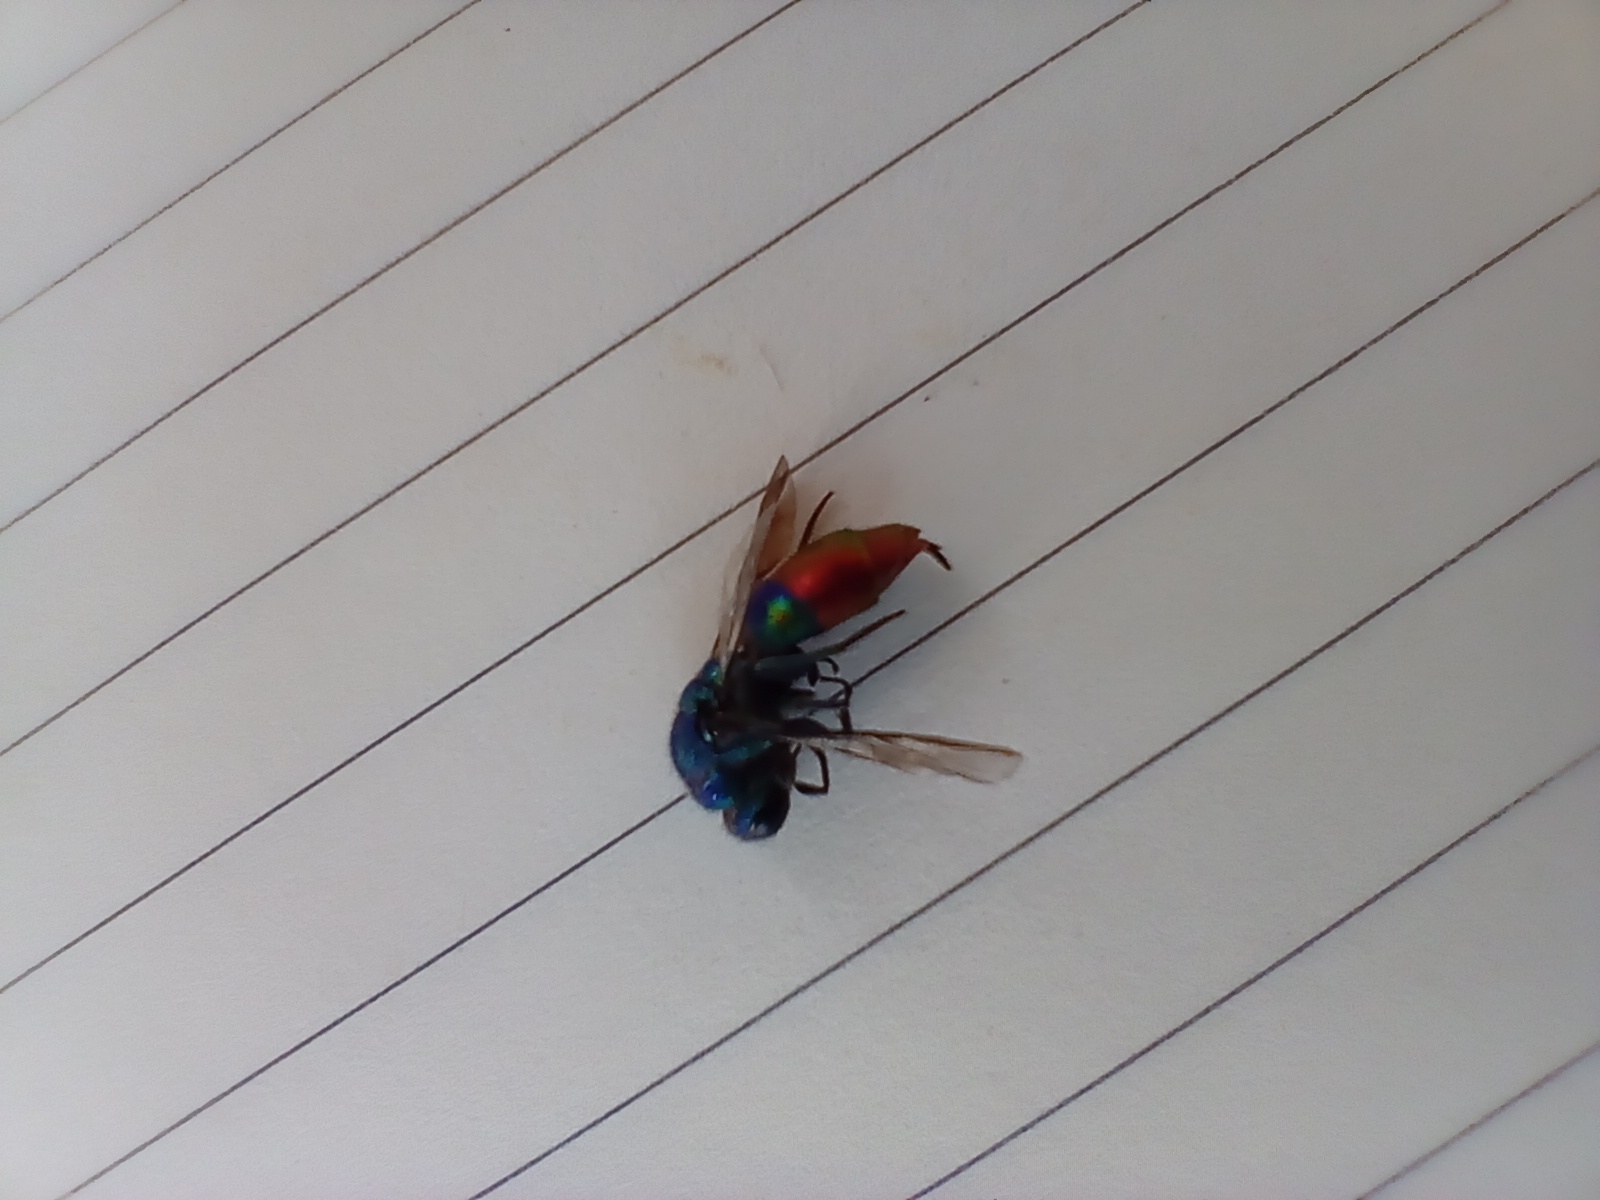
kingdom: Animalia
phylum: Arthropoda
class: Insecta
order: Hymenoptera
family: Chrysididae
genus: Chrysis
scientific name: Chrysis fulgida
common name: Shimmering ruby-tail
